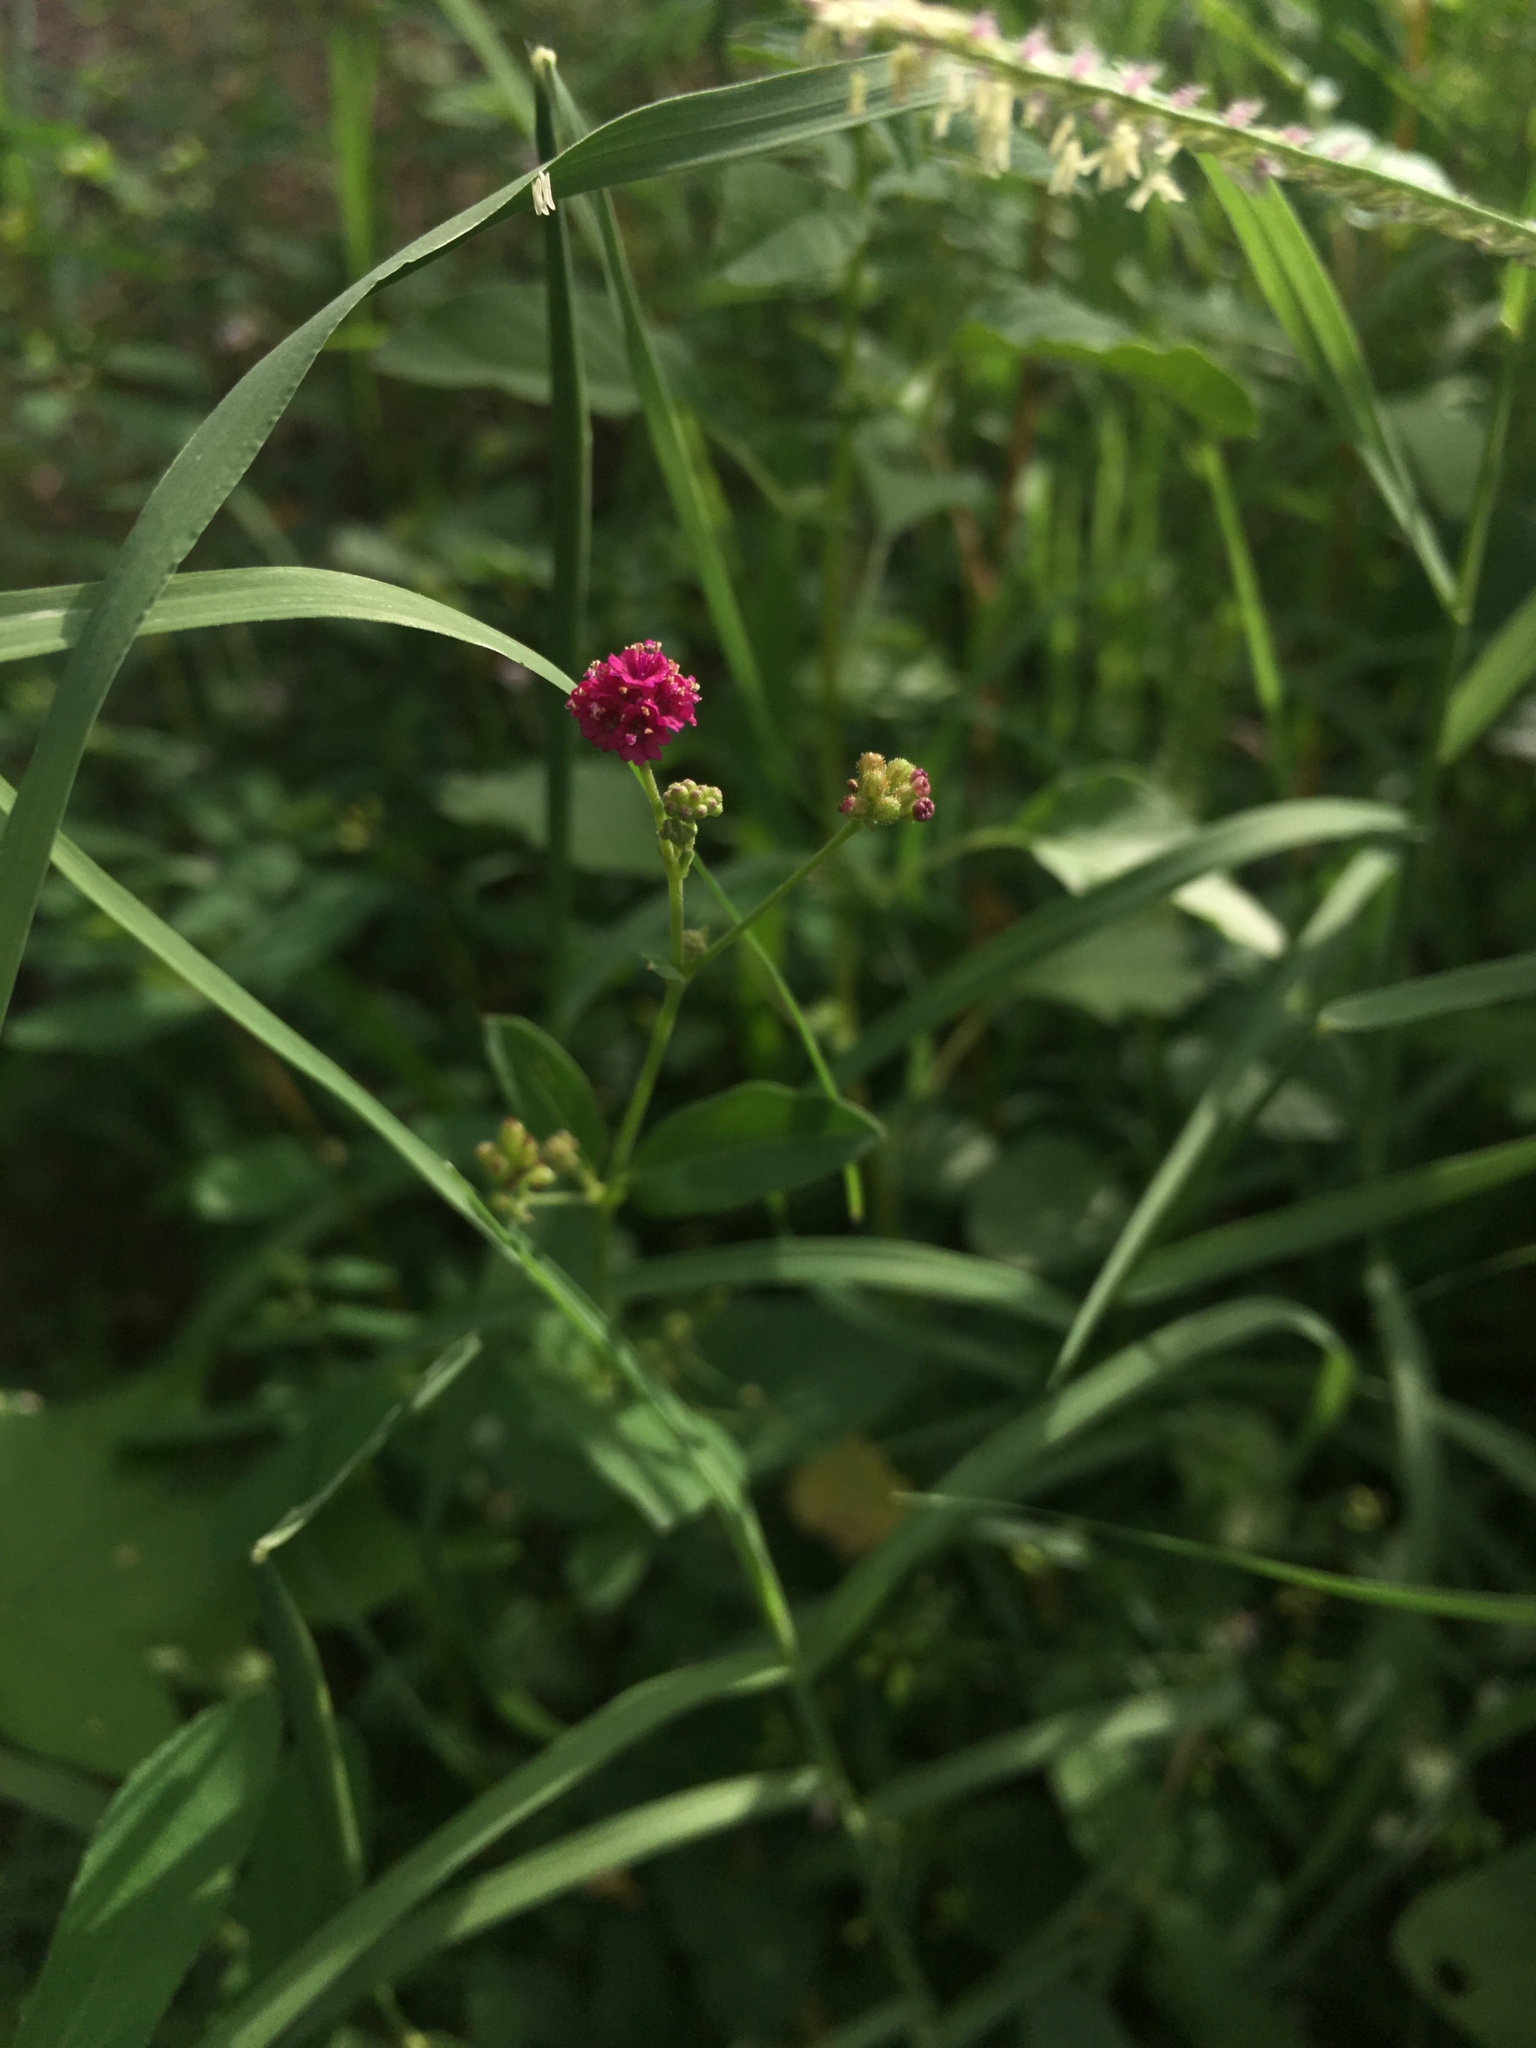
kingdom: Plantae
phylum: Tracheophyta
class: Magnoliopsida
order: Caryophyllales
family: Nyctaginaceae
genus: Boerhavia
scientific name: Boerhavia coccinea
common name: Scarlet spiderling
